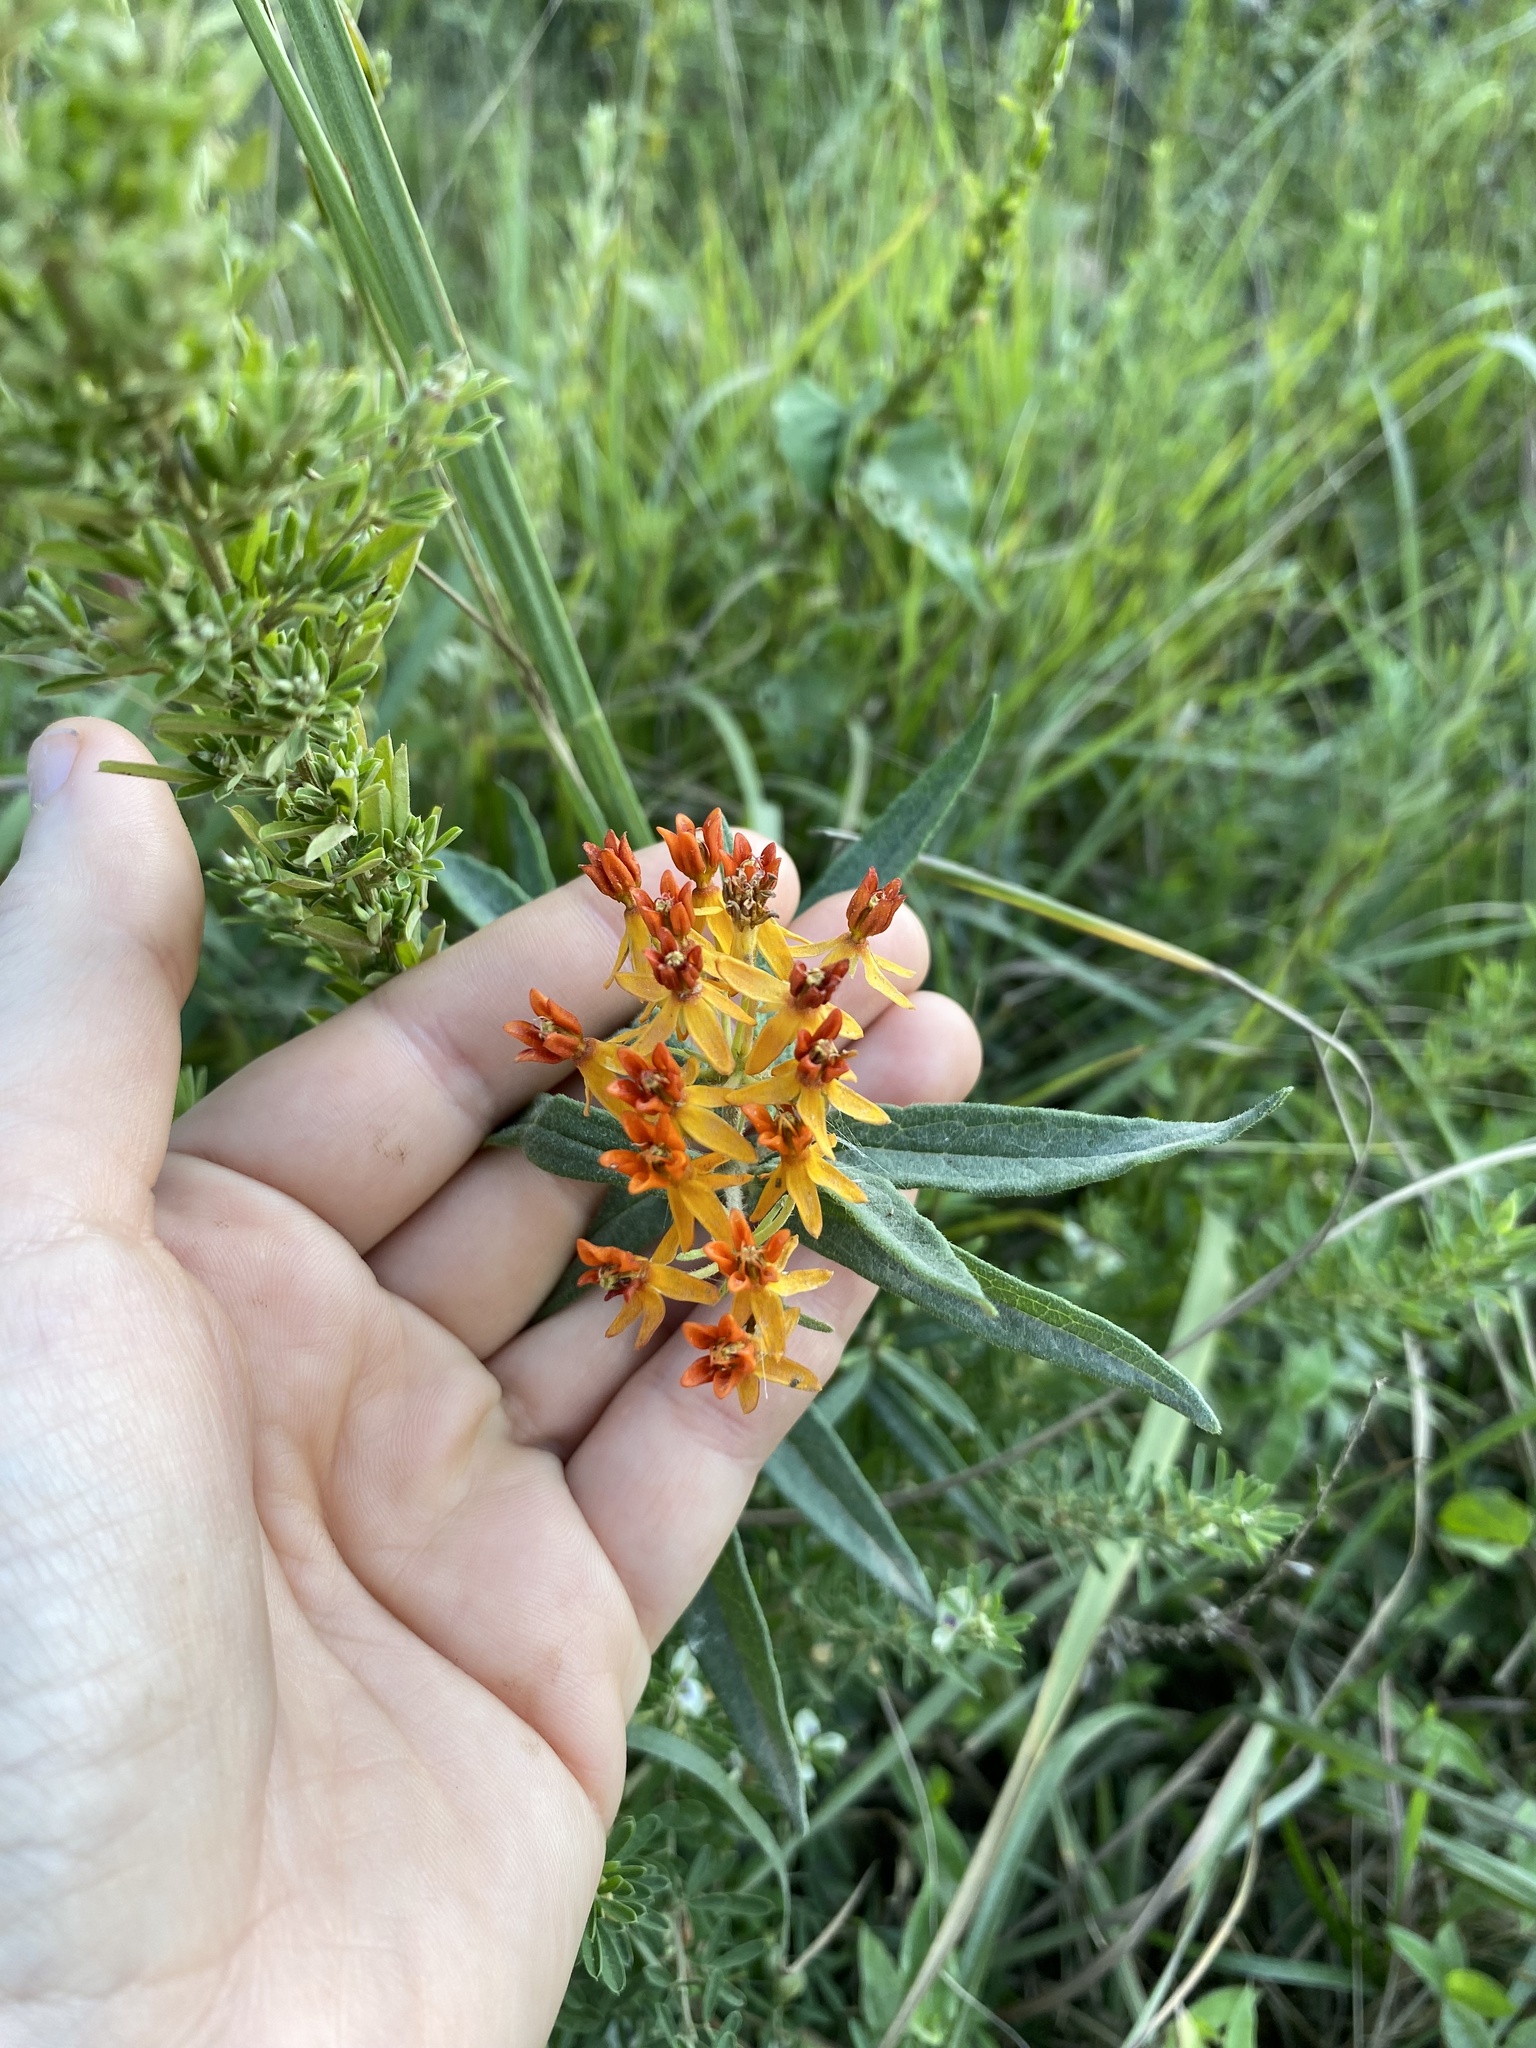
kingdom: Plantae
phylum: Tracheophyta
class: Magnoliopsida
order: Gentianales
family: Apocynaceae
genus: Asclepias
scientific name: Asclepias tuberosa
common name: Butterfly milkweed
